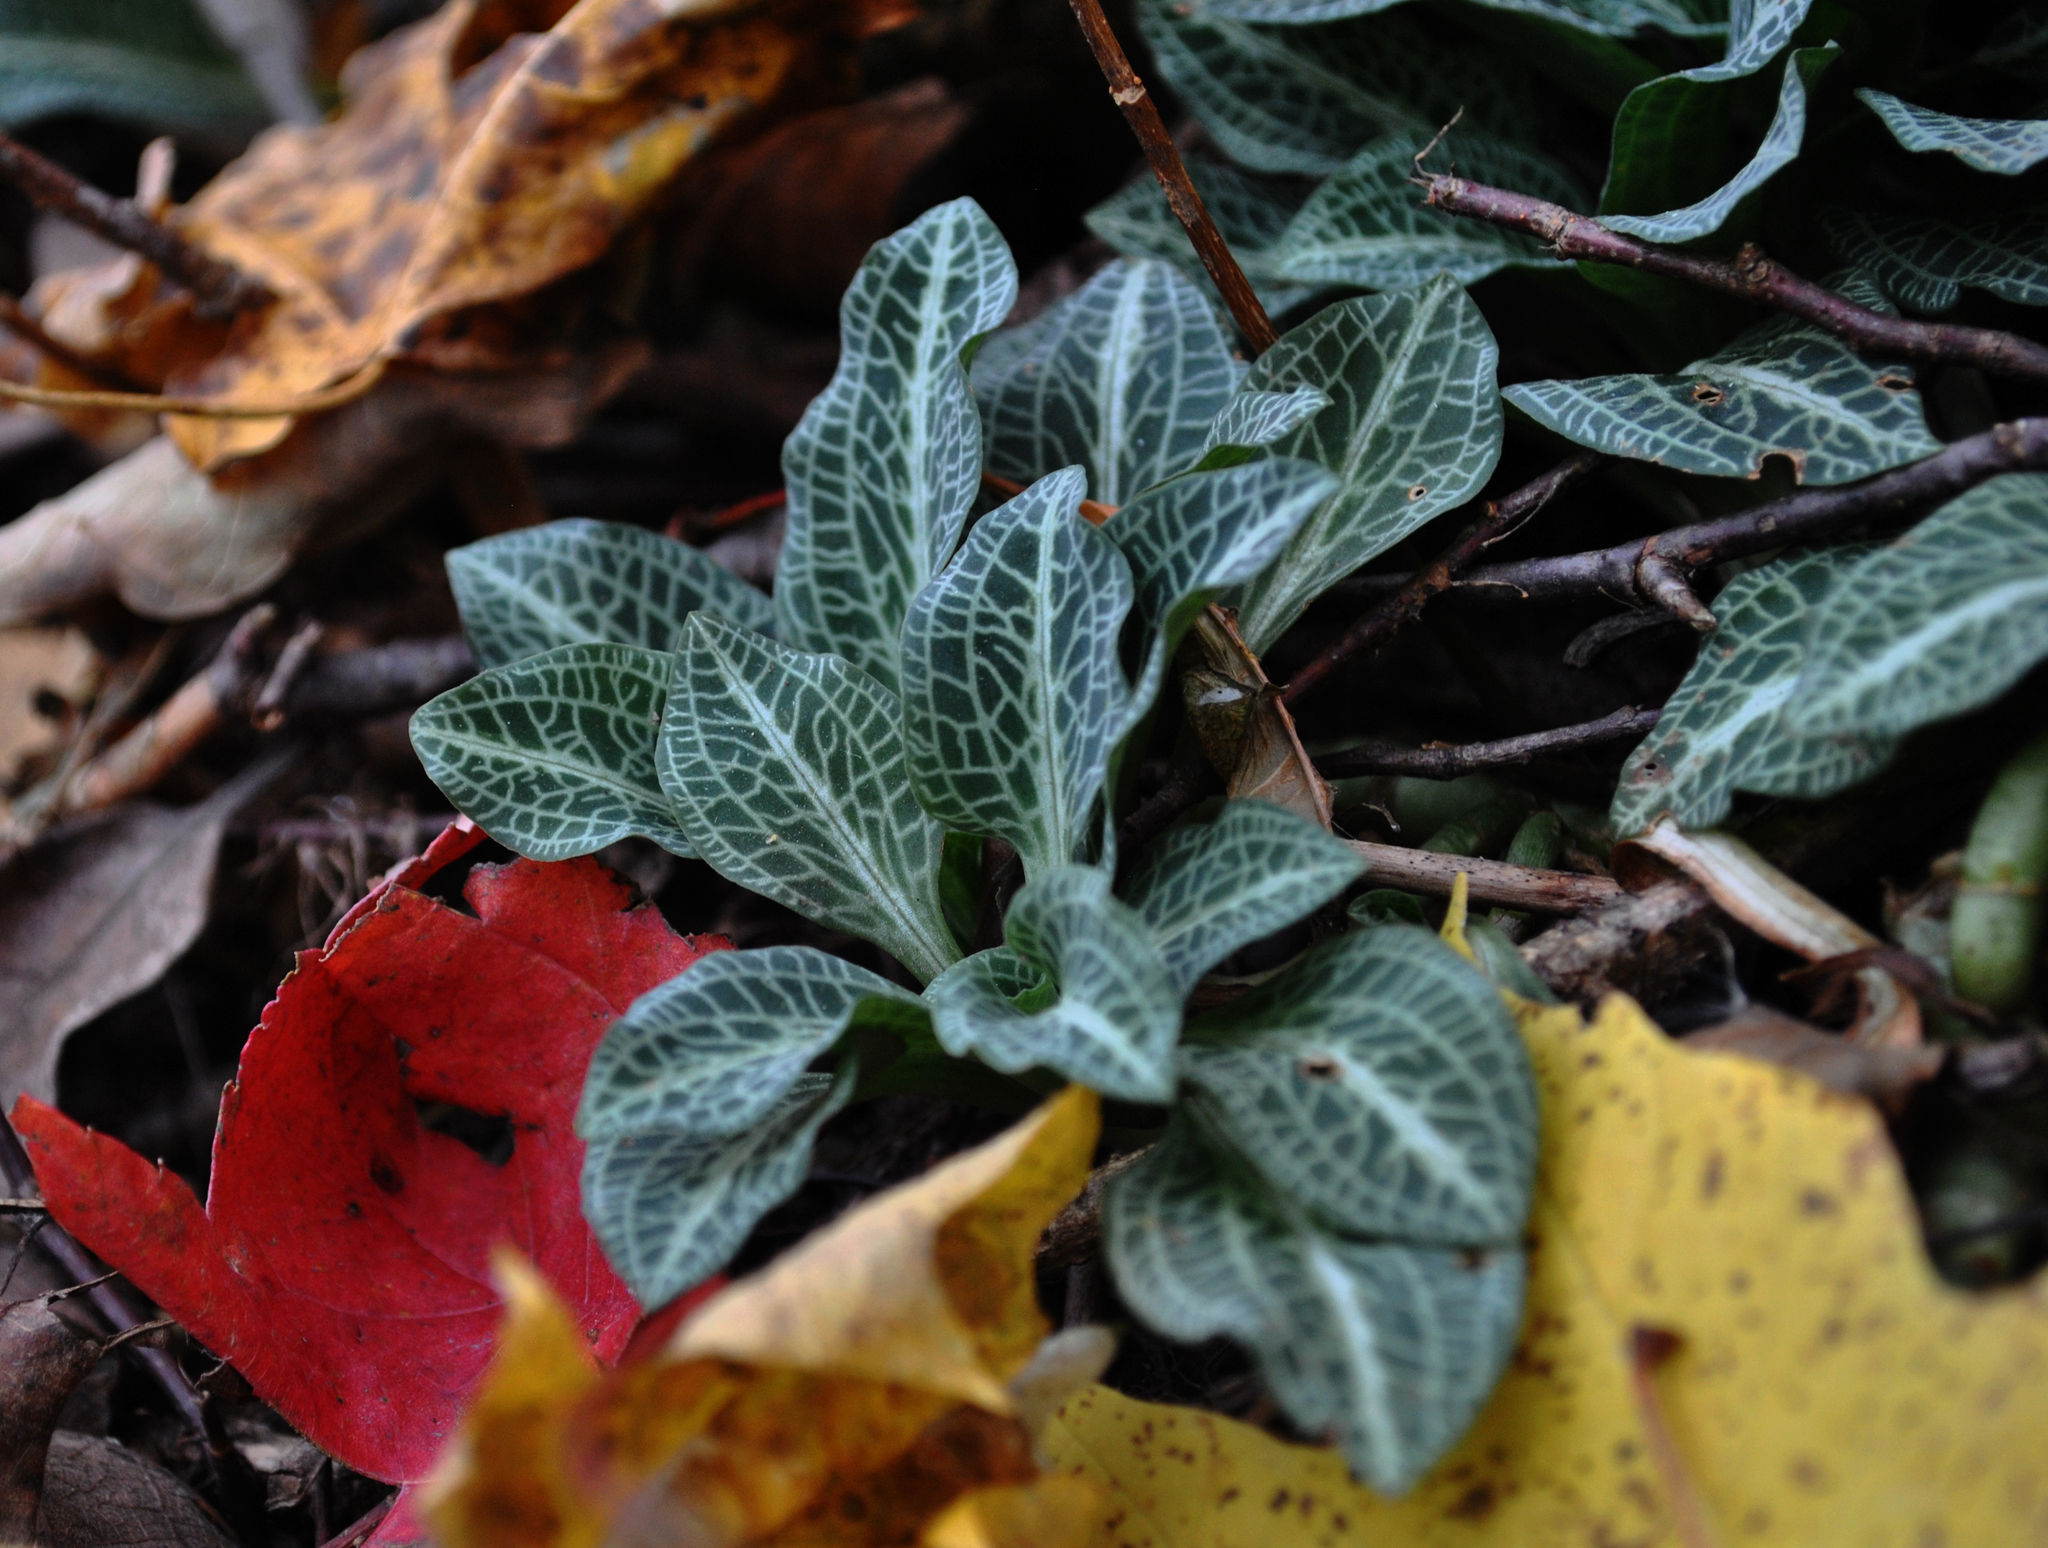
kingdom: Plantae
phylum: Tracheophyta
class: Liliopsida
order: Asparagales
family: Orchidaceae
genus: Goodyera
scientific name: Goodyera pubescens
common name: Downy rattlesnake-plantain
